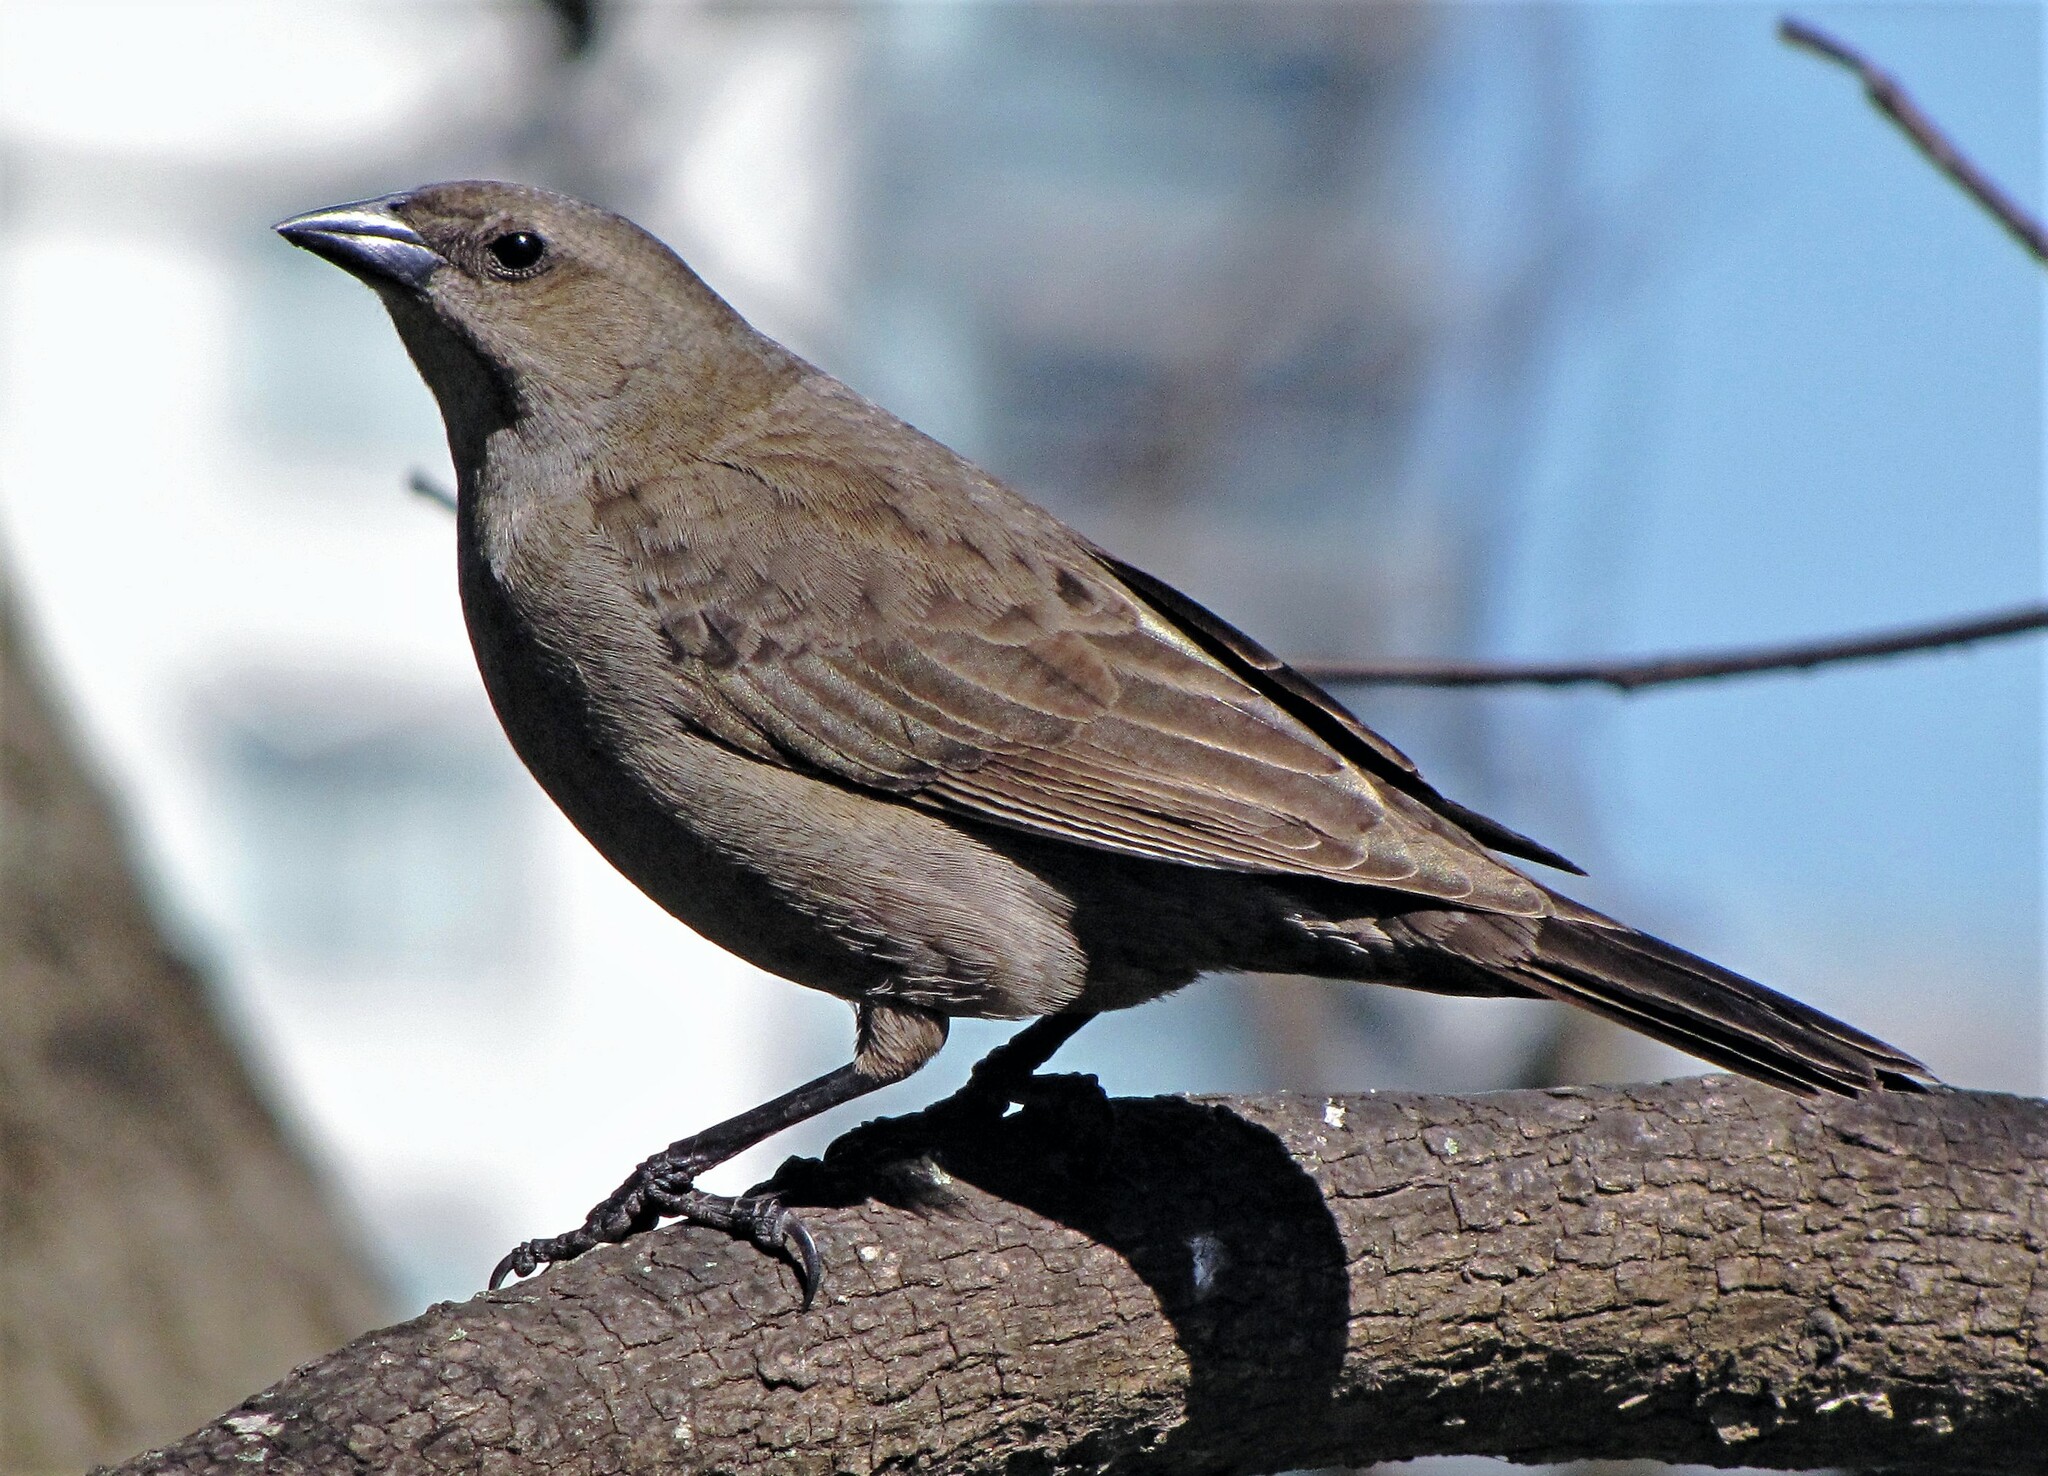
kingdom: Animalia
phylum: Chordata
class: Aves
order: Passeriformes
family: Icteridae
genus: Molothrus
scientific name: Molothrus bonariensis
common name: Shiny cowbird
